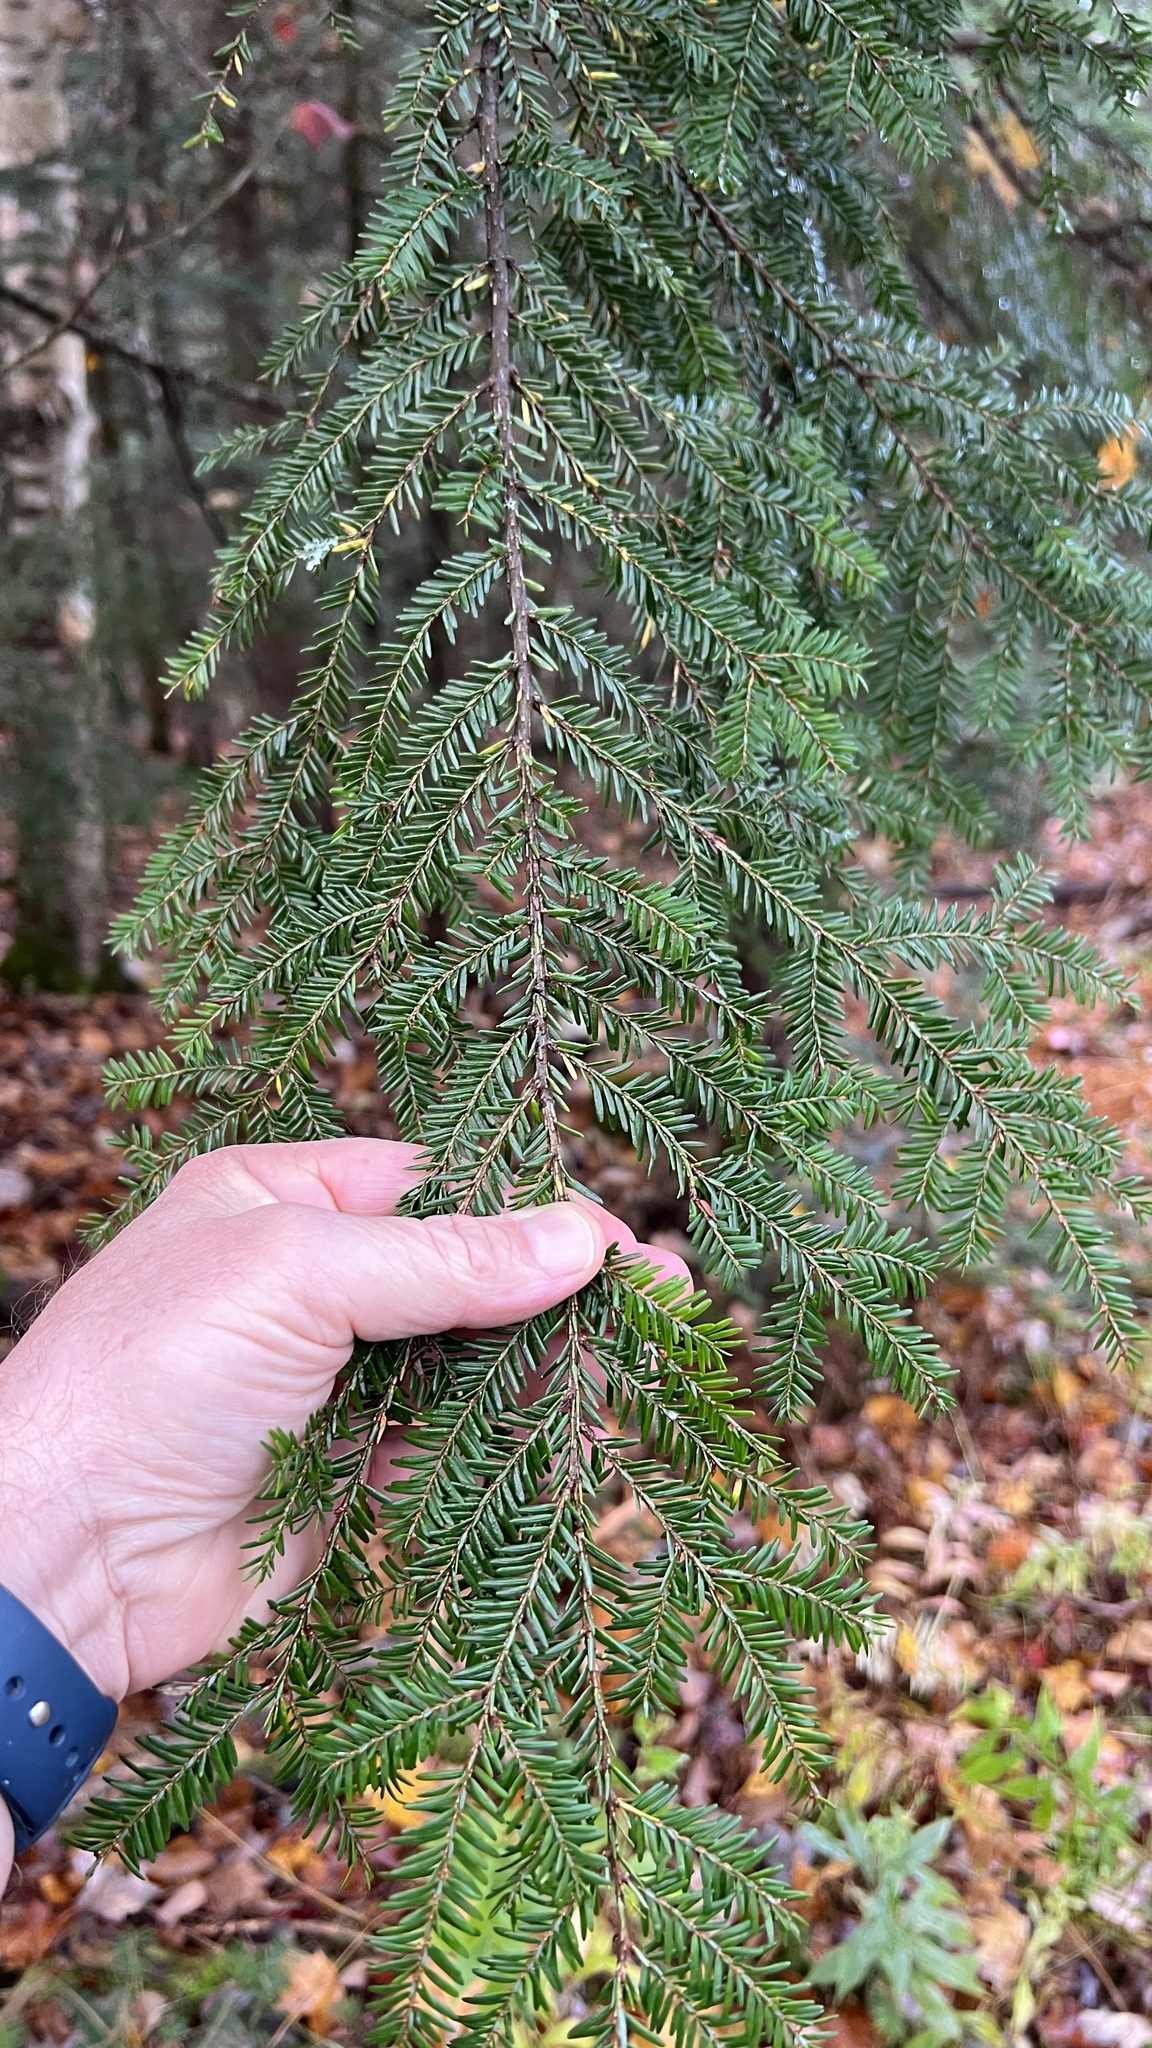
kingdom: Plantae
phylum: Tracheophyta
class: Pinopsida
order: Pinales
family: Pinaceae
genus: Tsuga
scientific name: Tsuga canadensis
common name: Eastern hemlock
